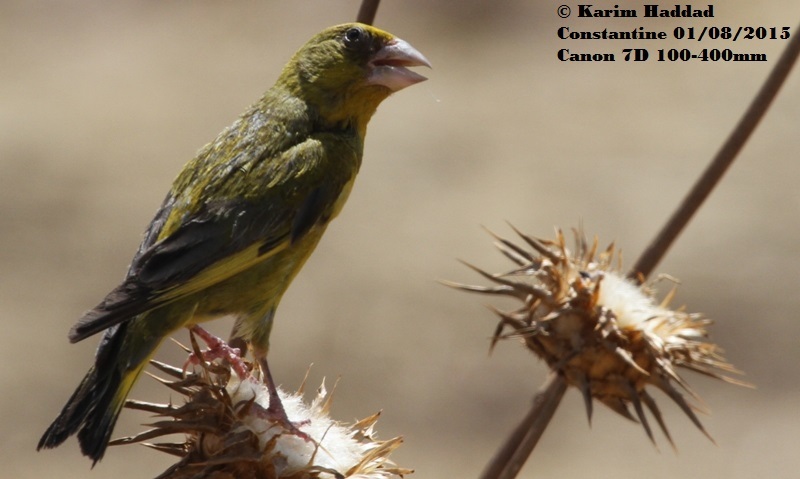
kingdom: Plantae
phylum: Tracheophyta
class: Liliopsida
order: Poales
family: Poaceae
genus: Chloris
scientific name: Chloris chloris
